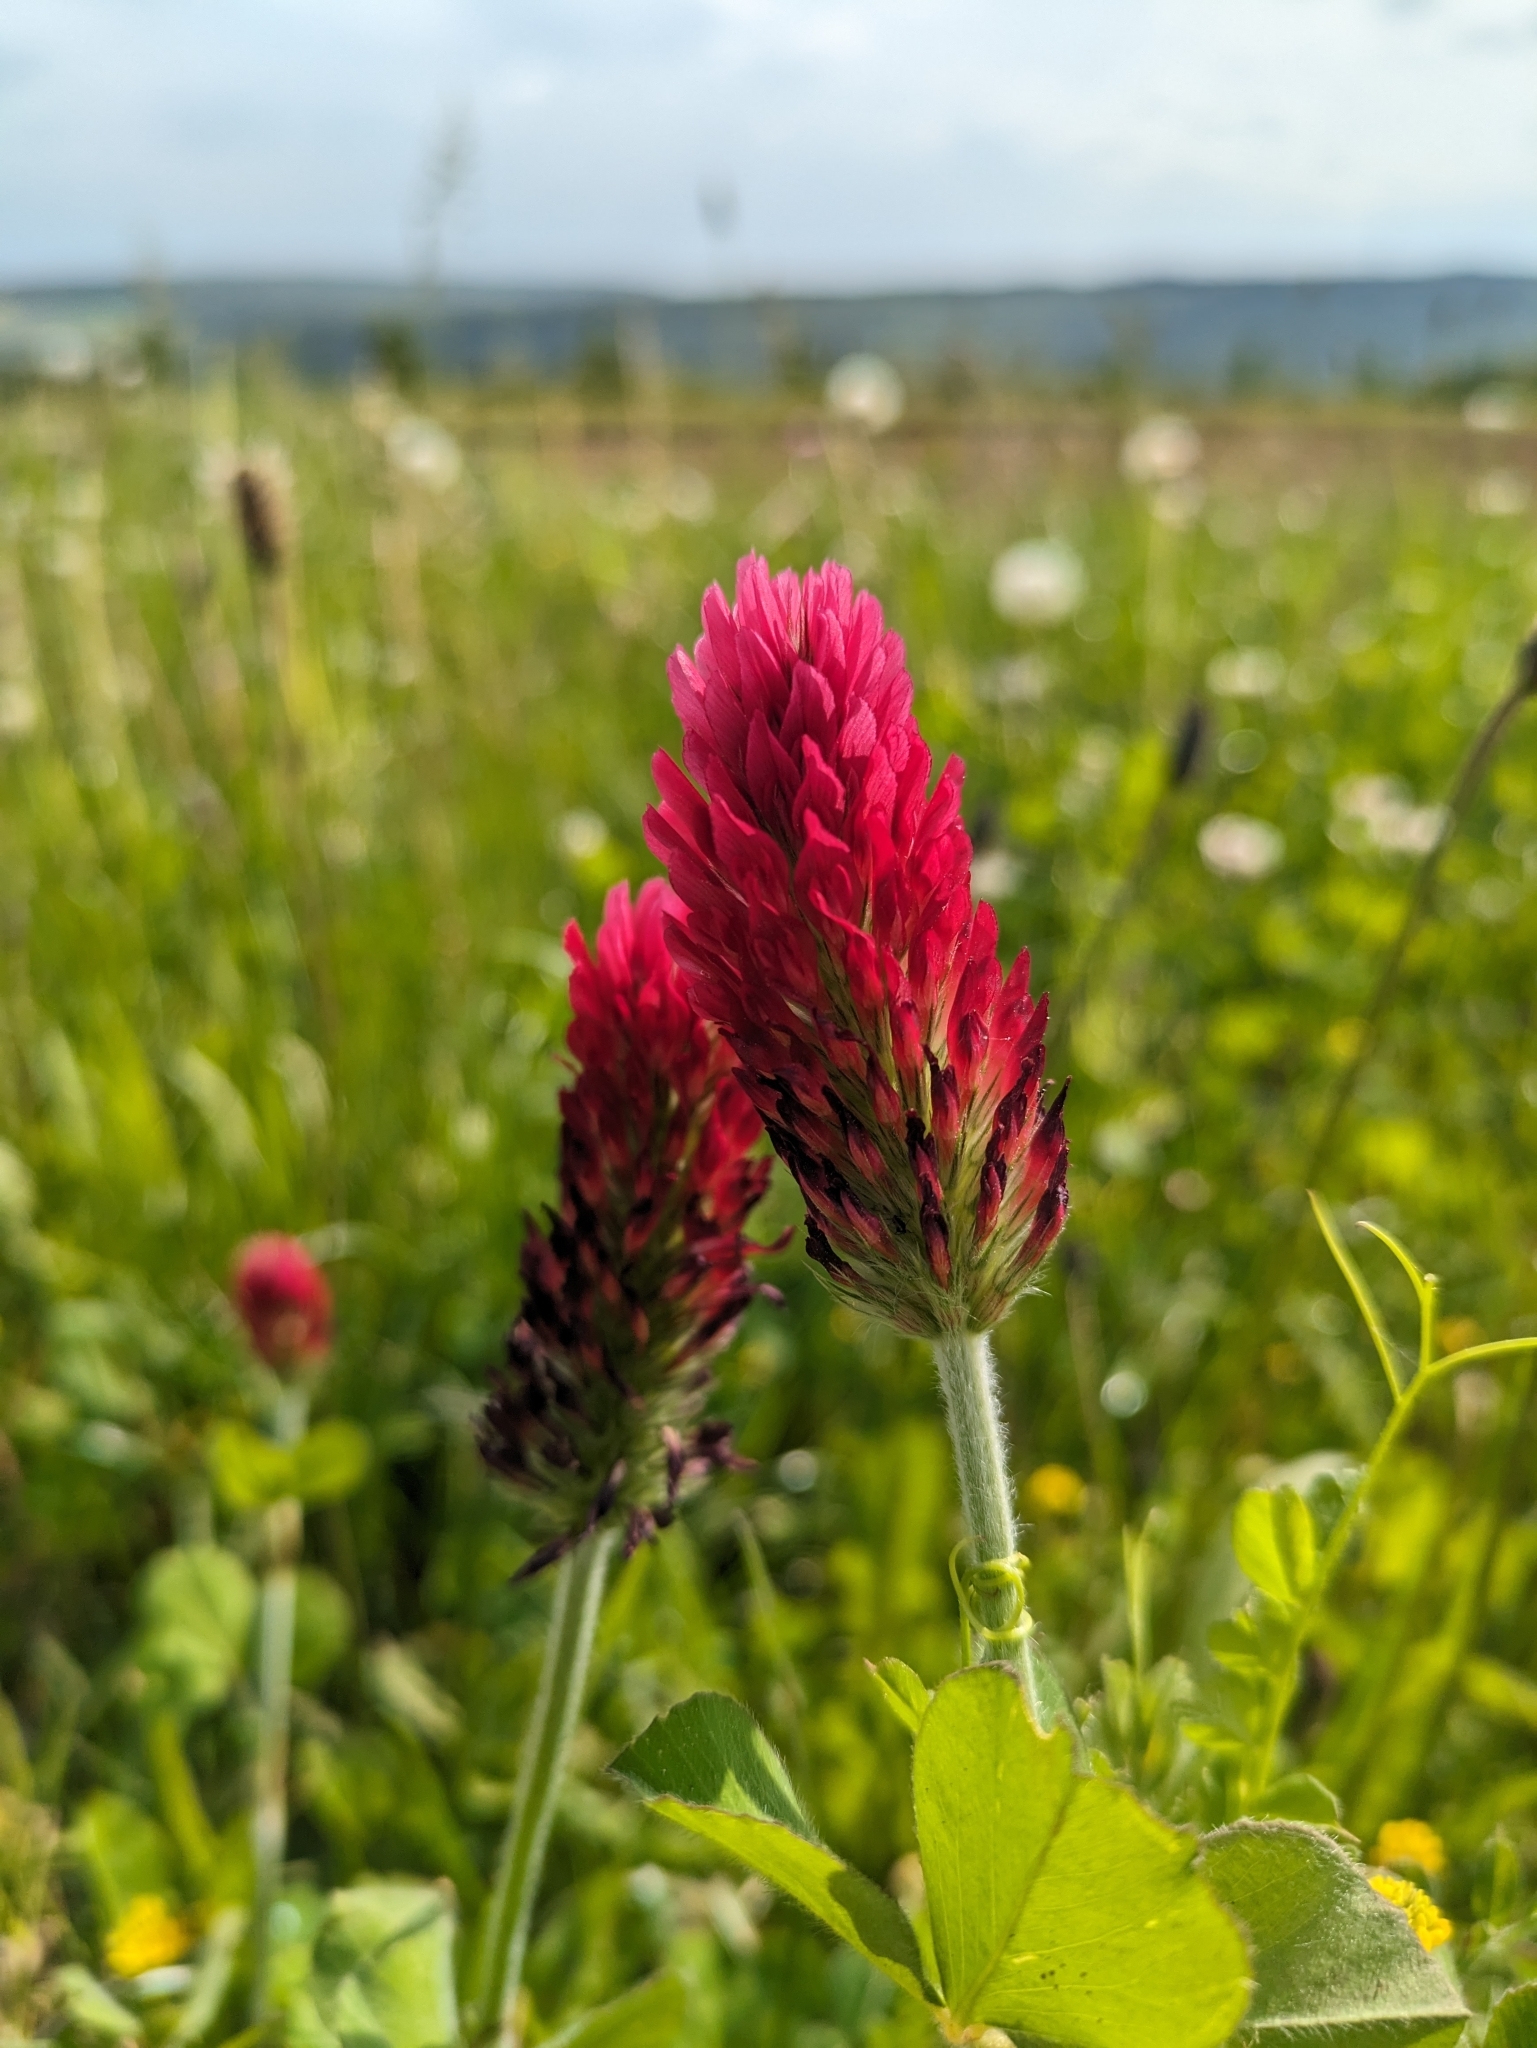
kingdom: Plantae
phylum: Tracheophyta
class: Magnoliopsida
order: Fabales
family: Fabaceae
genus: Trifolium
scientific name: Trifolium incarnatum
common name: Crimson clover
